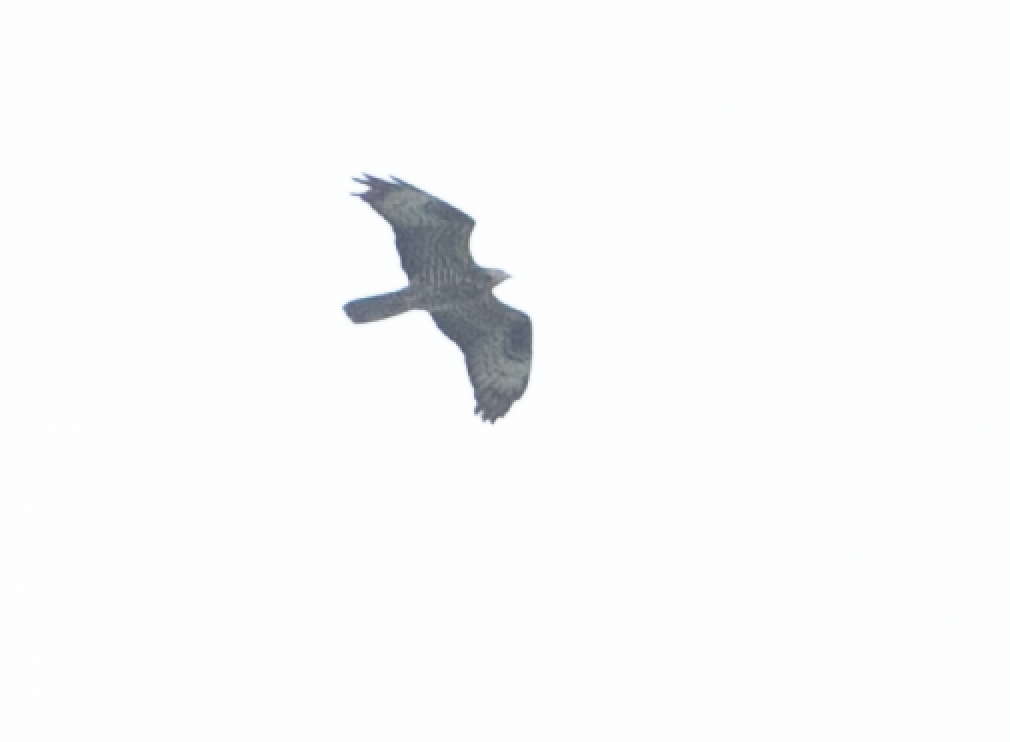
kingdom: Animalia
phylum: Chordata
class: Aves
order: Accipitriformes
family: Accipitridae
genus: Pernis
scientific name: Pernis apivorus
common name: European honey buzzard
